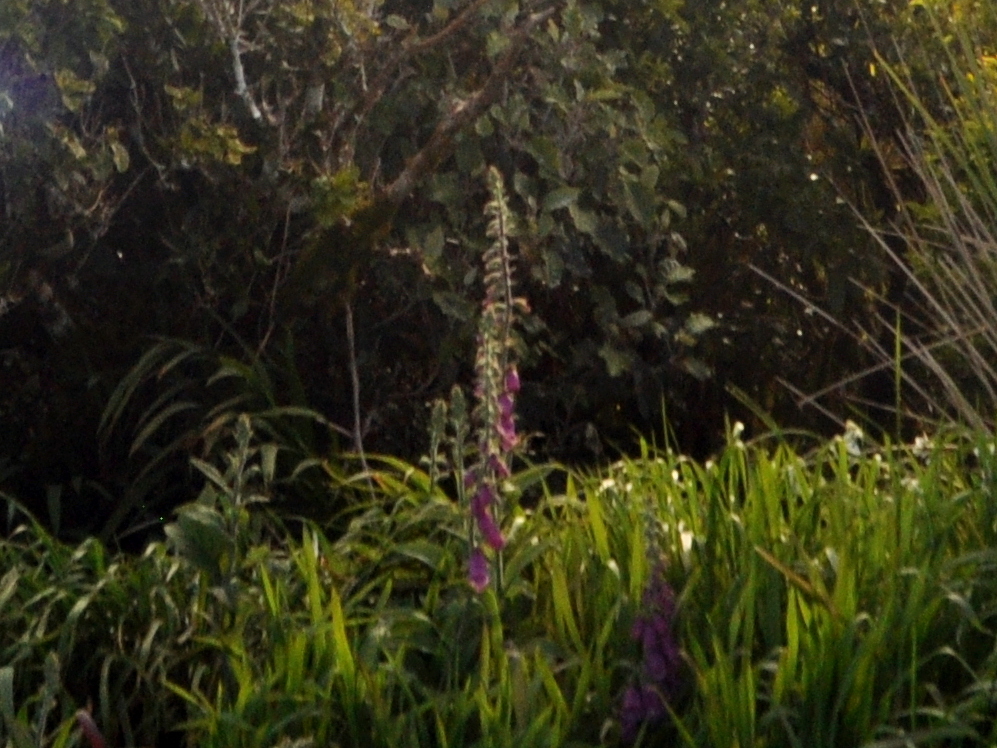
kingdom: Plantae
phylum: Tracheophyta
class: Magnoliopsida
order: Lamiales
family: Plantaginaceae
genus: Digitalis
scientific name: Digitalis purpurea
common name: Foxglove
